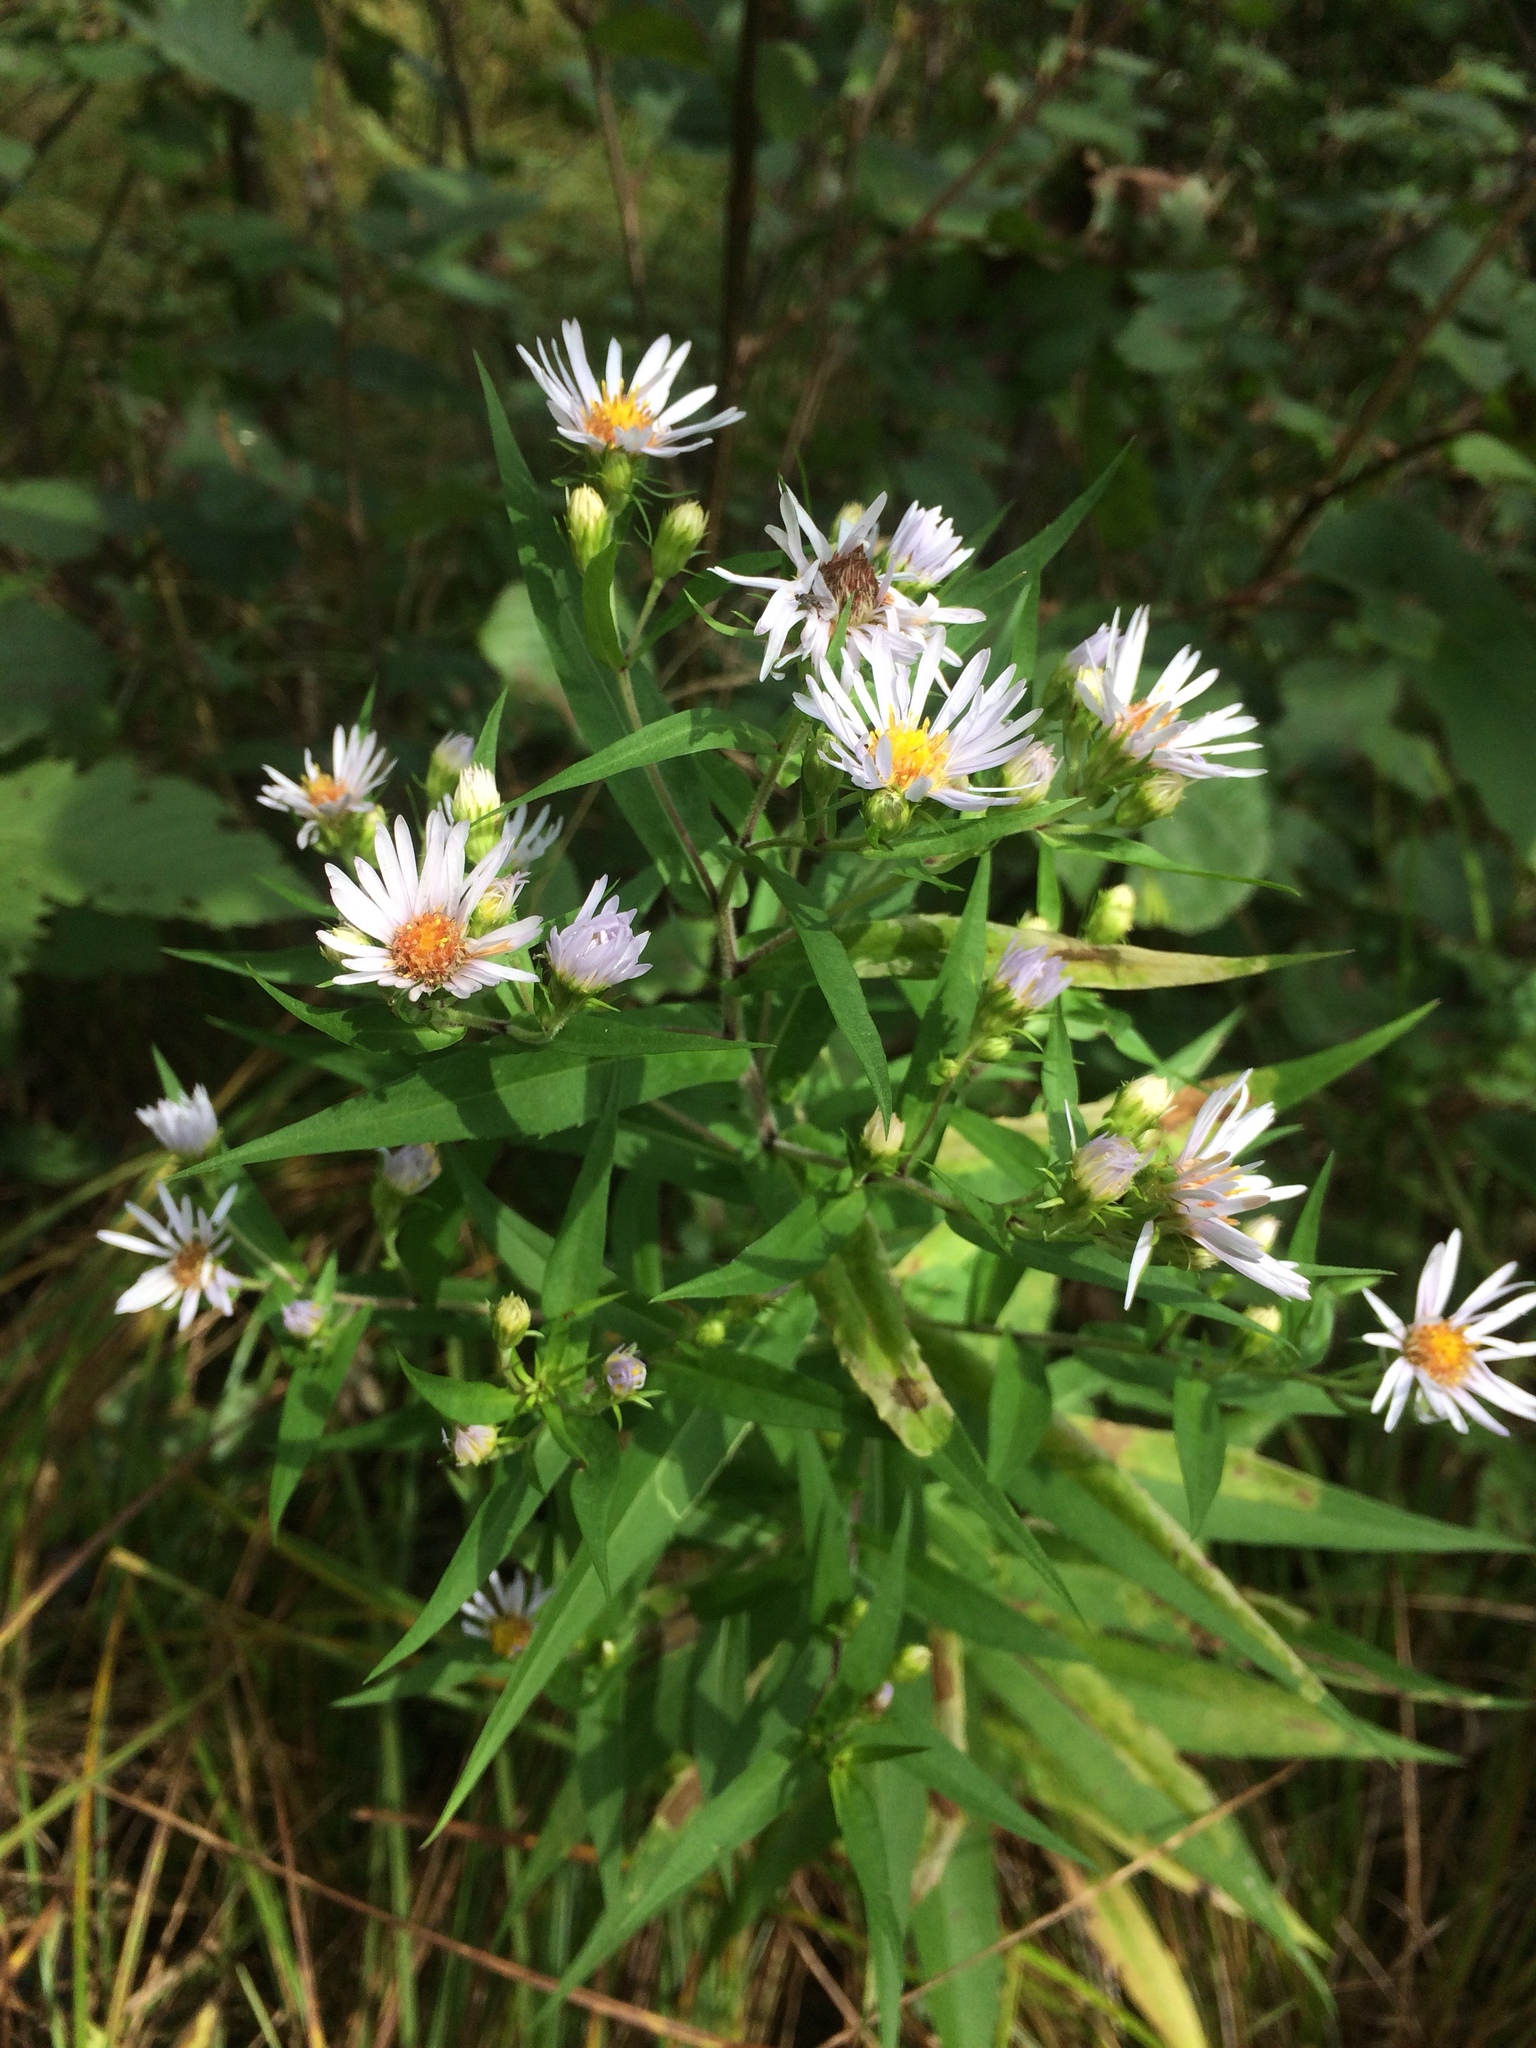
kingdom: Plantae
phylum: Tracheophyta
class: Magnoliopsida
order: Asterales
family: Asteraceae
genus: Symphyotrichum
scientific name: Symphyotrichum puniceum
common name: Bog aster
